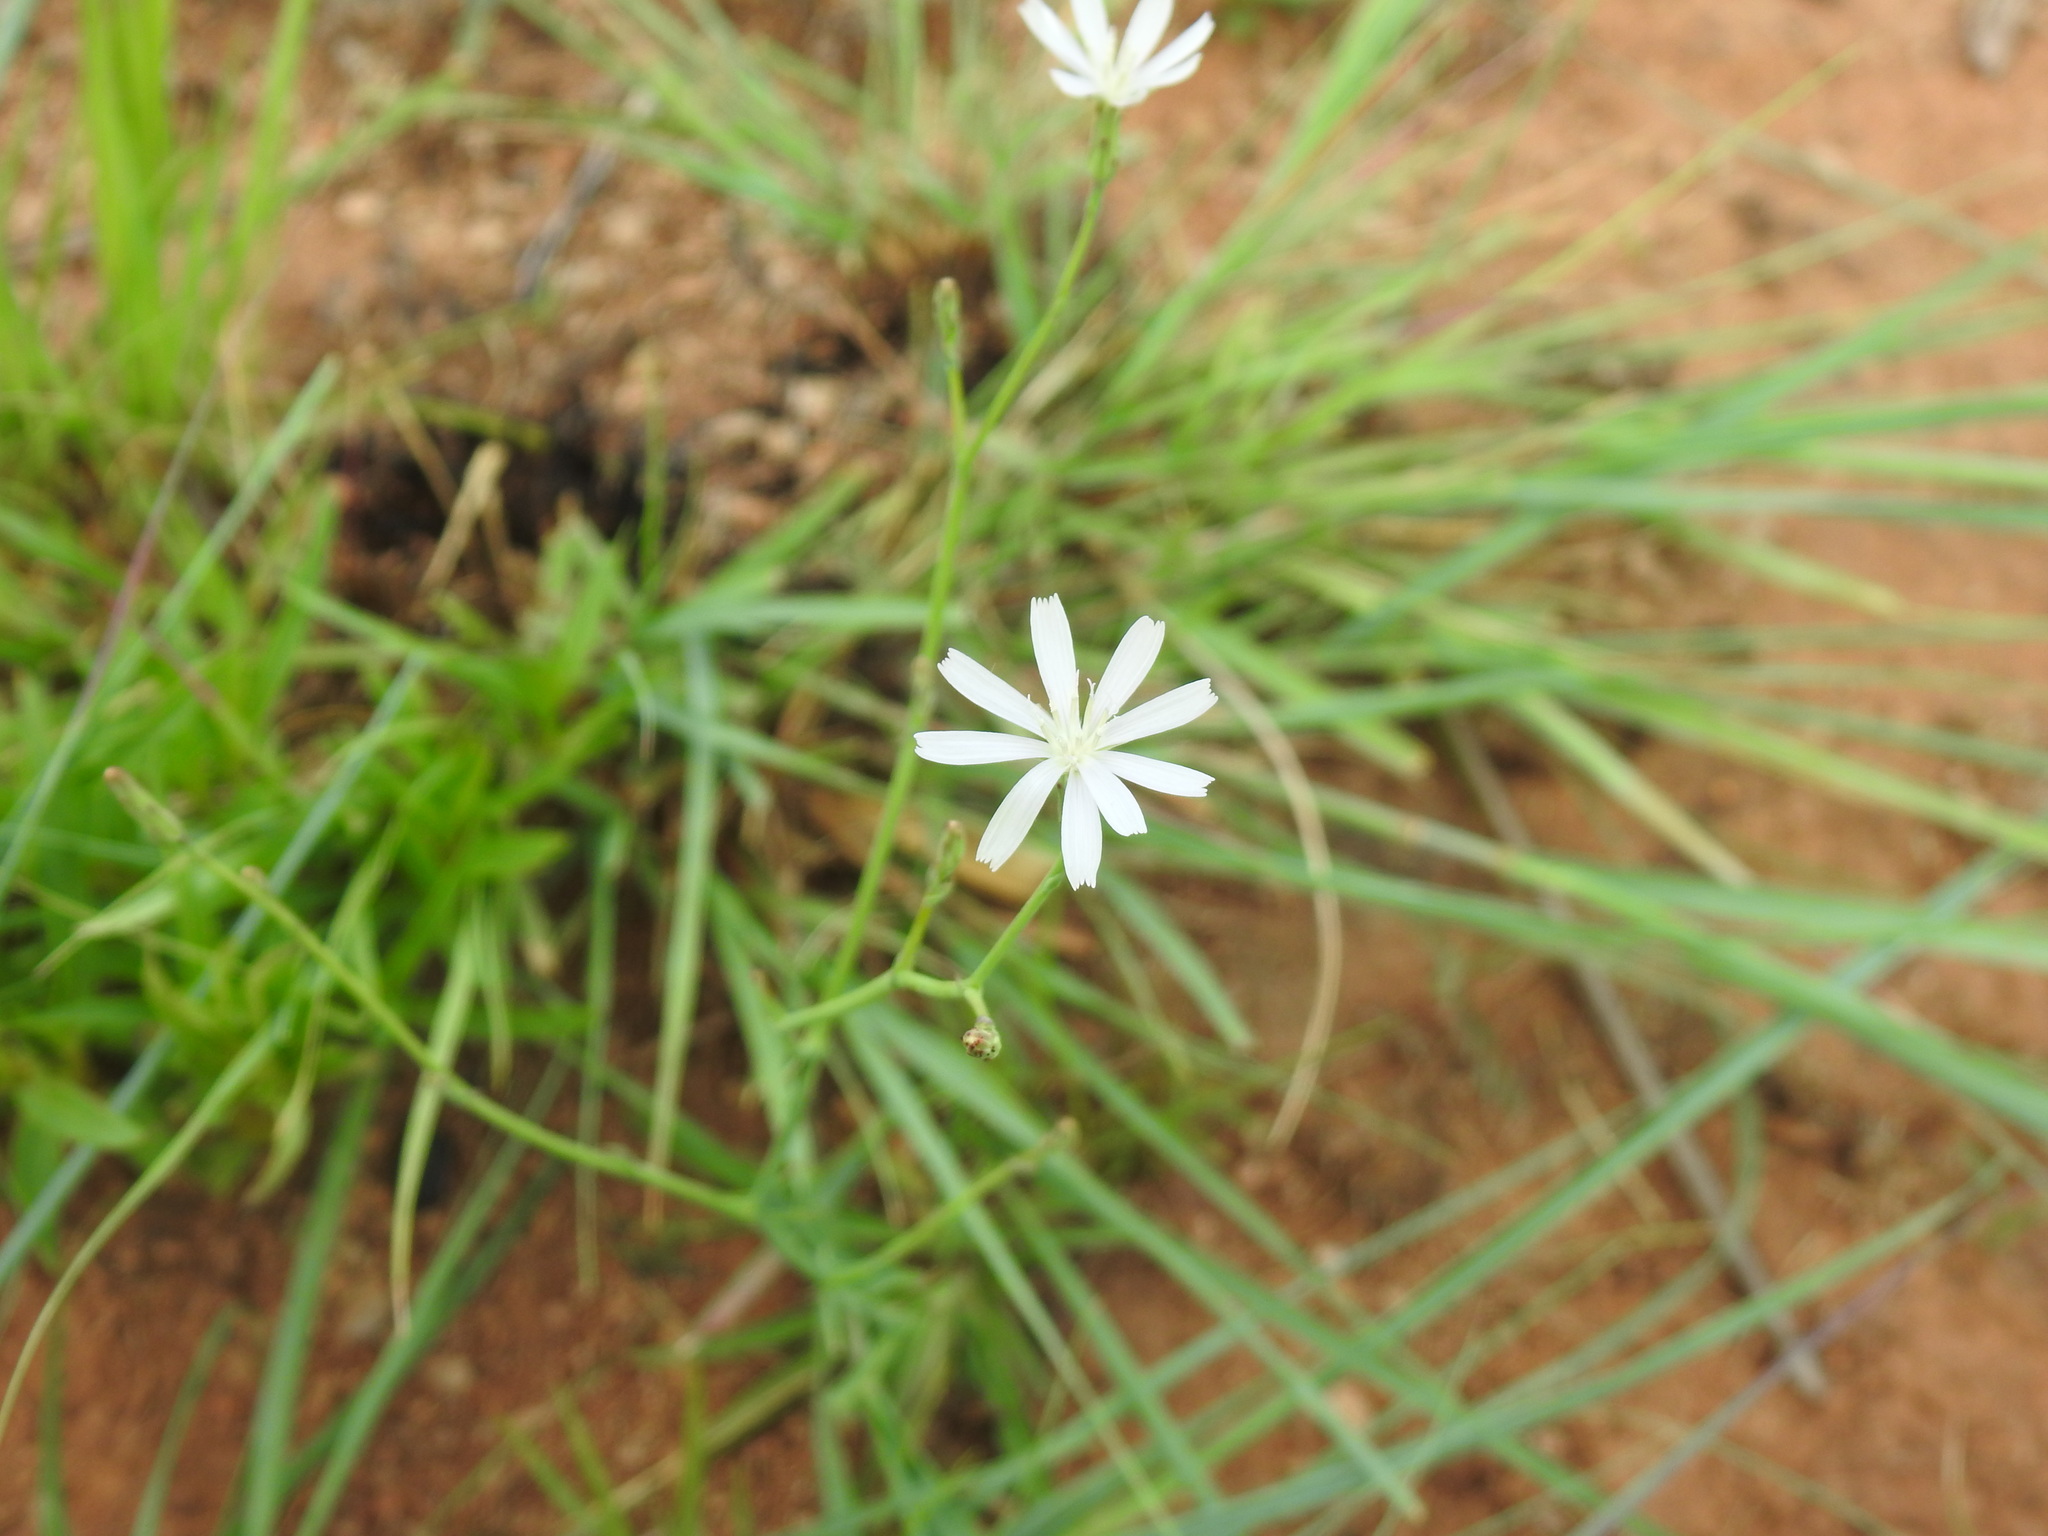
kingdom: Plantae
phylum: Tracheophyta
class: Magnoliopsida
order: Asterales
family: Asteraceae
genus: Lactuca
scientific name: Lactuca inermis
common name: Wild lettuce
